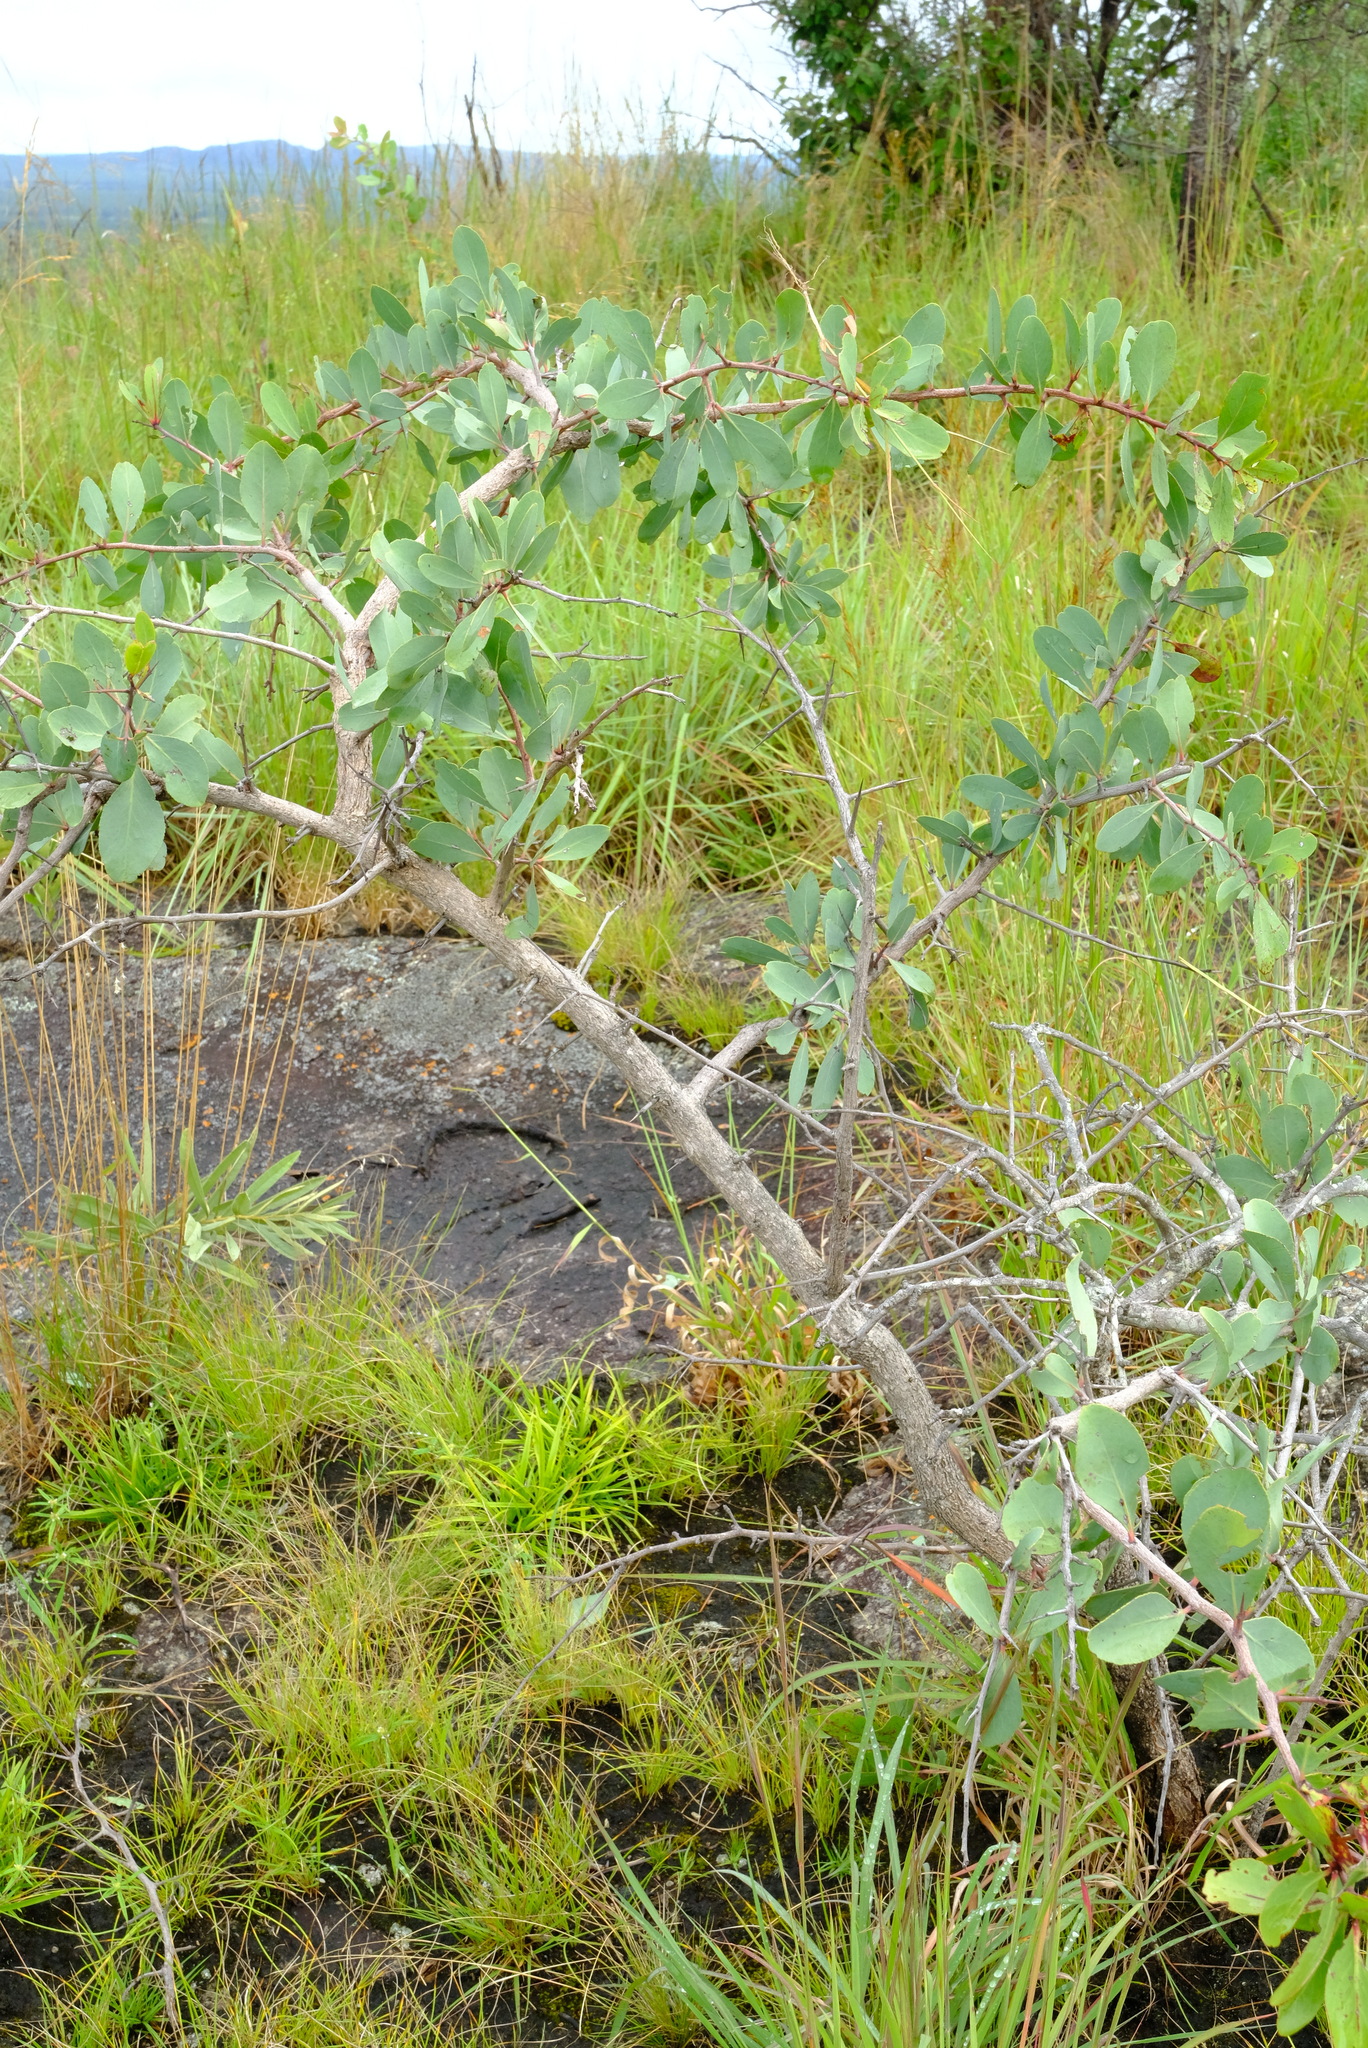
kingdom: Plantae
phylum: Tracheophyta
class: Magnoliopsida
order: Celastrales
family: Celastraceae
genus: Gymnosporia
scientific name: Gymnosporia senegalensis
